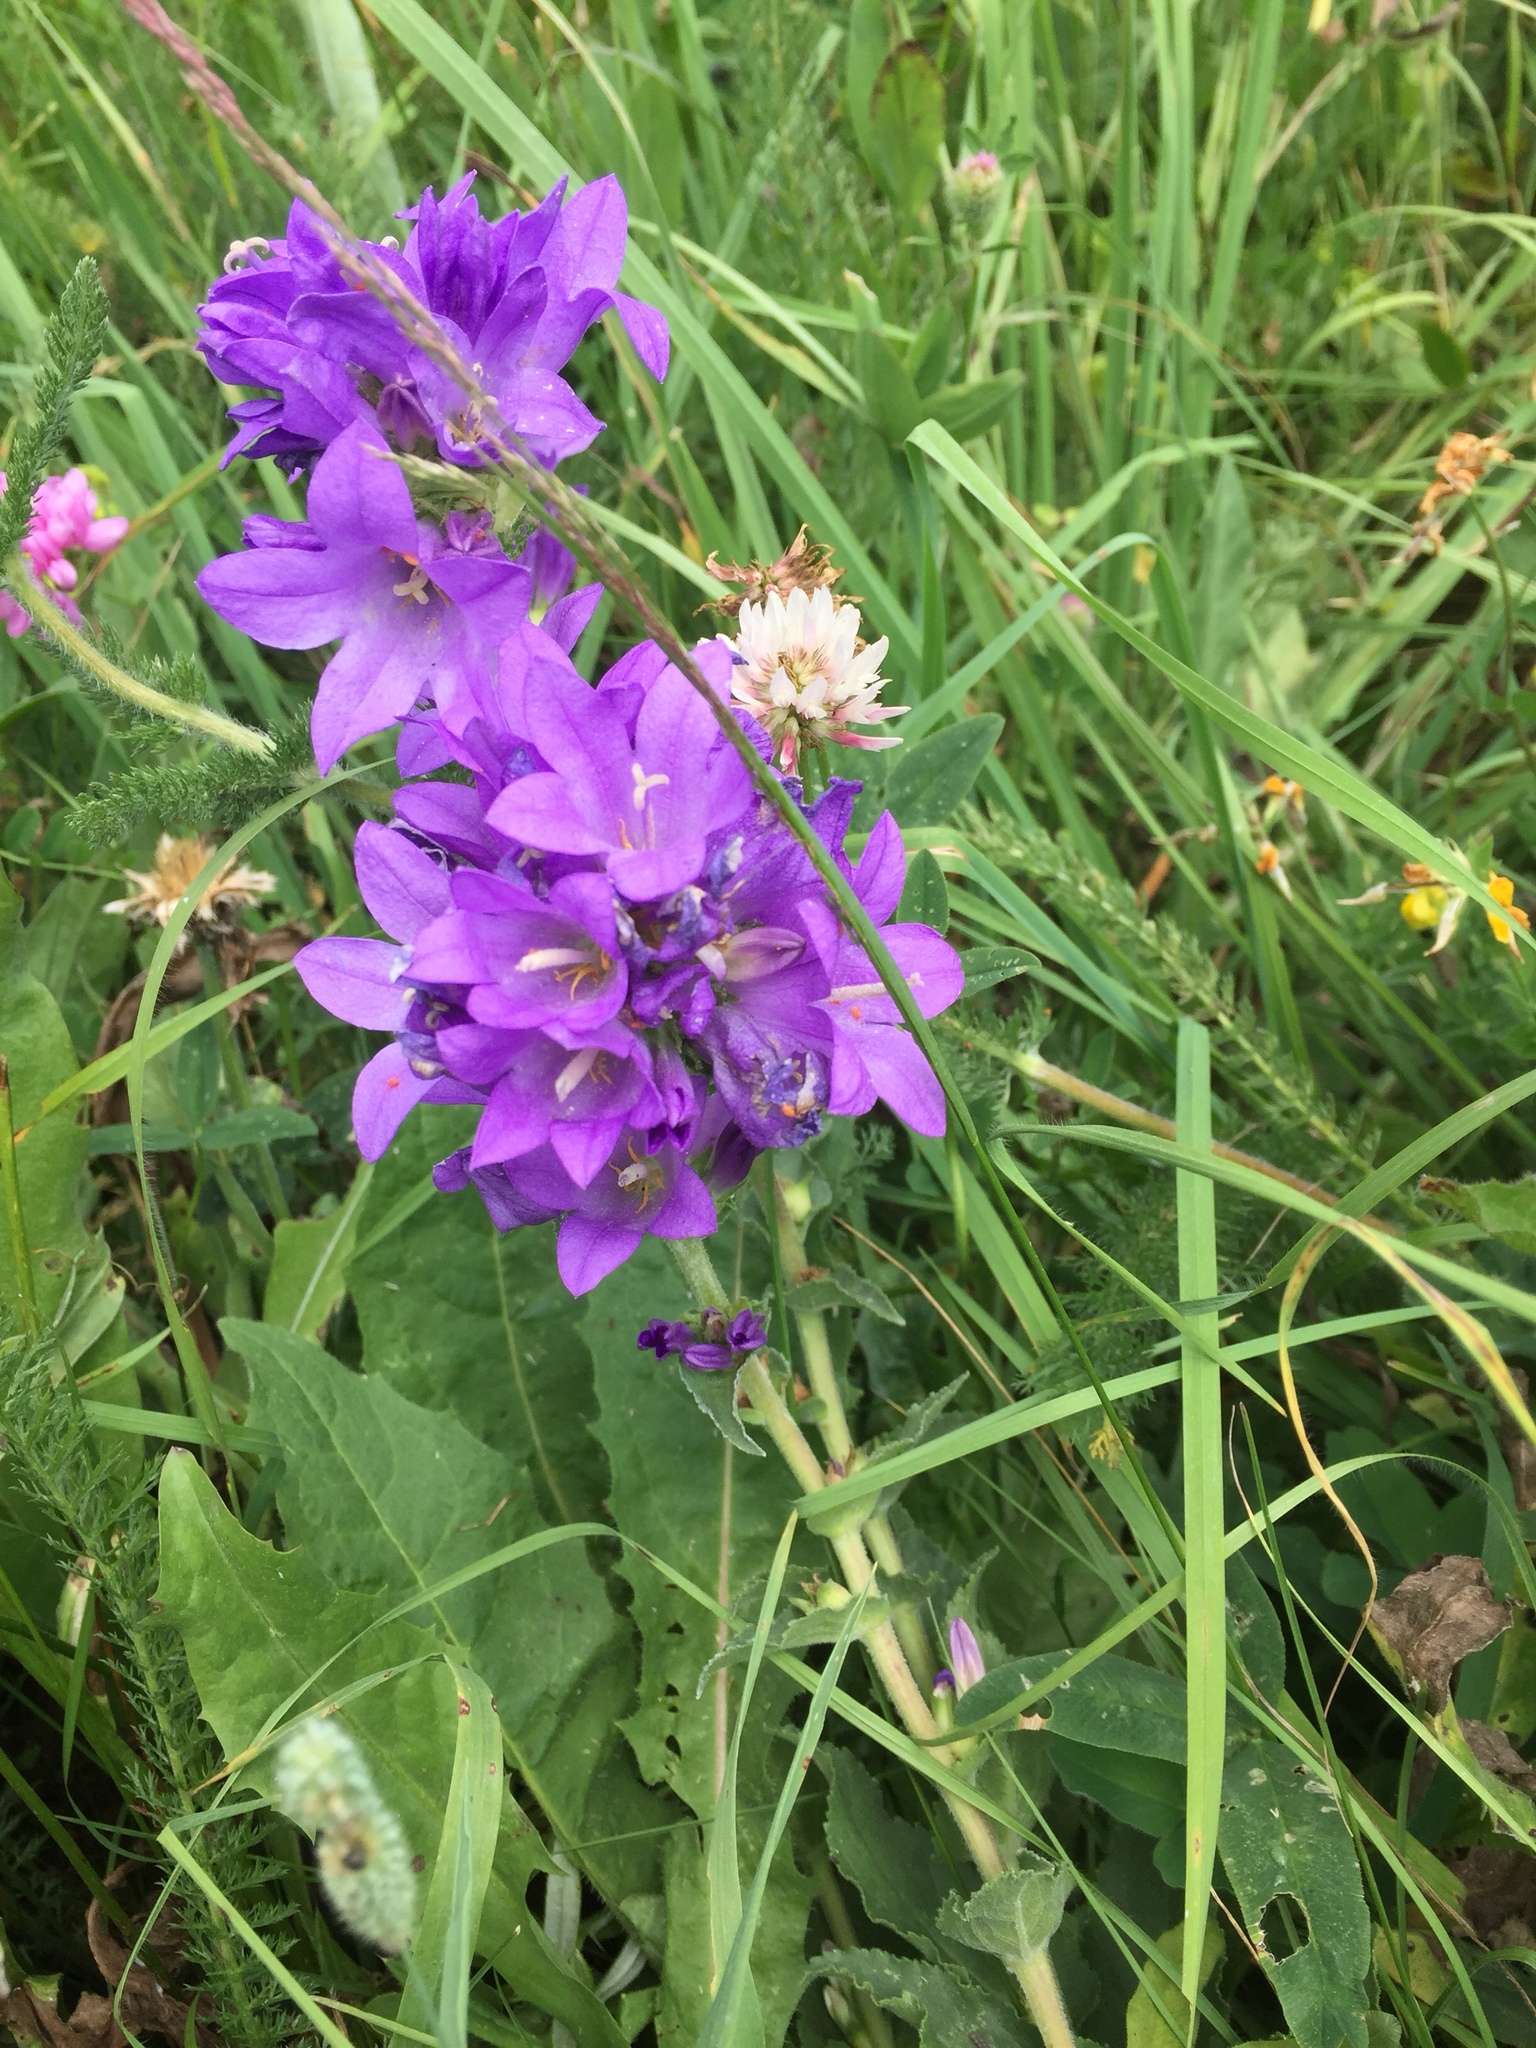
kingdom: Plantae
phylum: Tracheophyta
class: Magnoliopsida
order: Asterales
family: Campanulaceae
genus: Campanula
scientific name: Campanula glomerata
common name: Clustered bellflower
